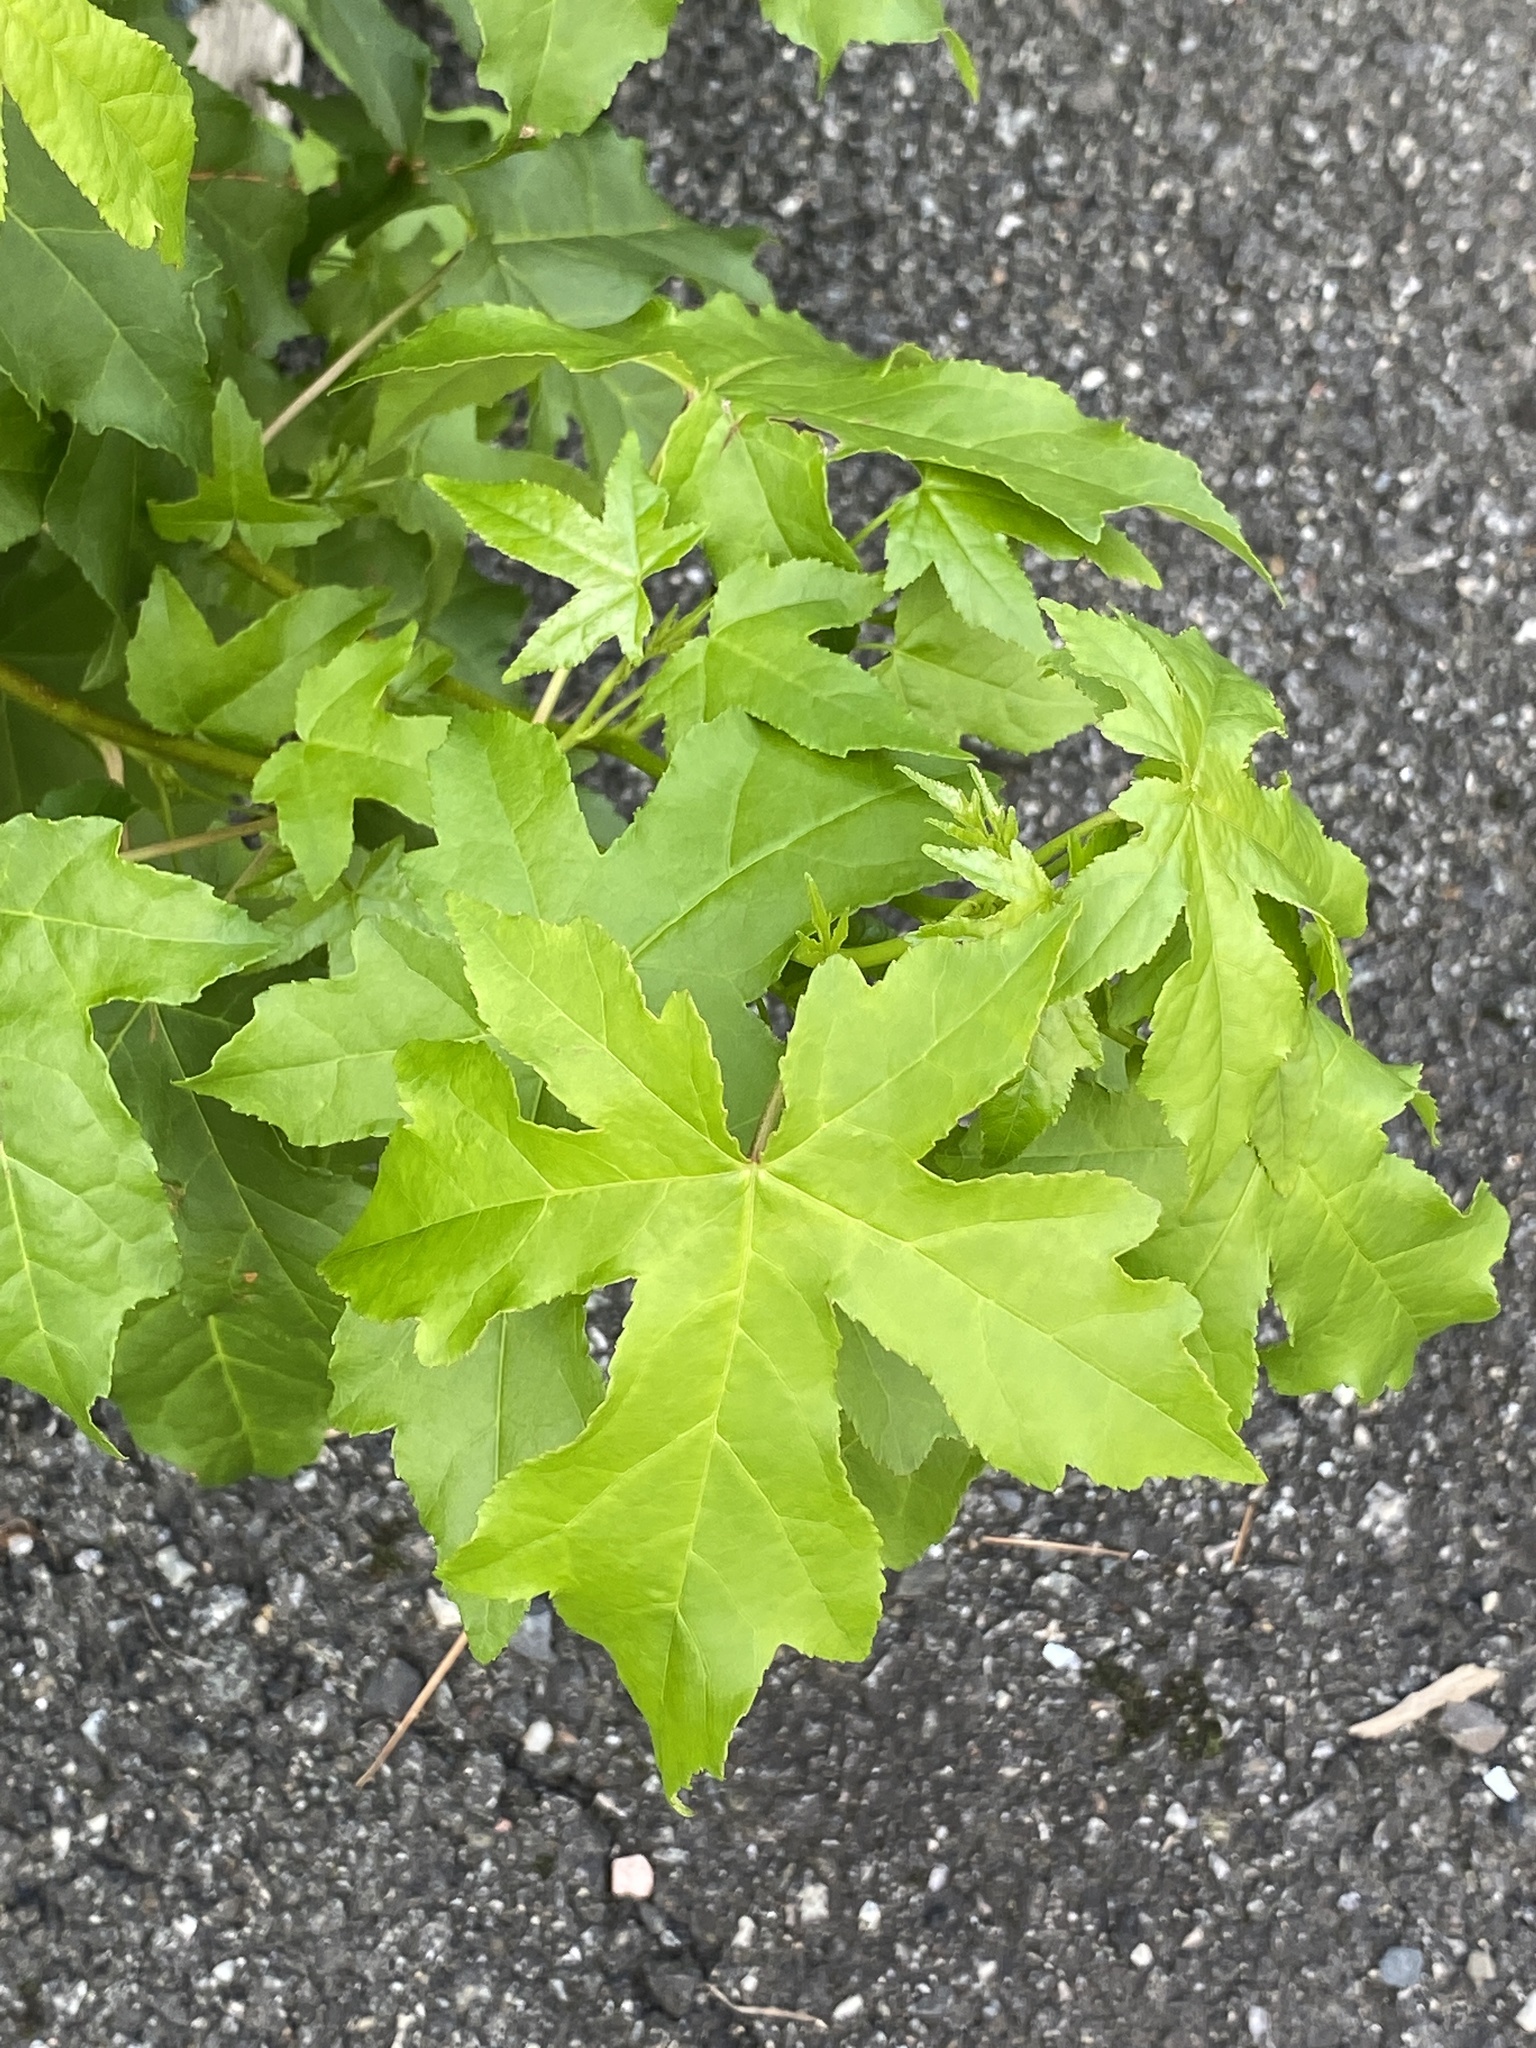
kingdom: Plantae
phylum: Tracheophyta
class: Magnoliopsida
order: Saxifragales
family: Altingiaceae
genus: Liquidambar
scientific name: Liquidambar styraciflua
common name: Sweet gum
